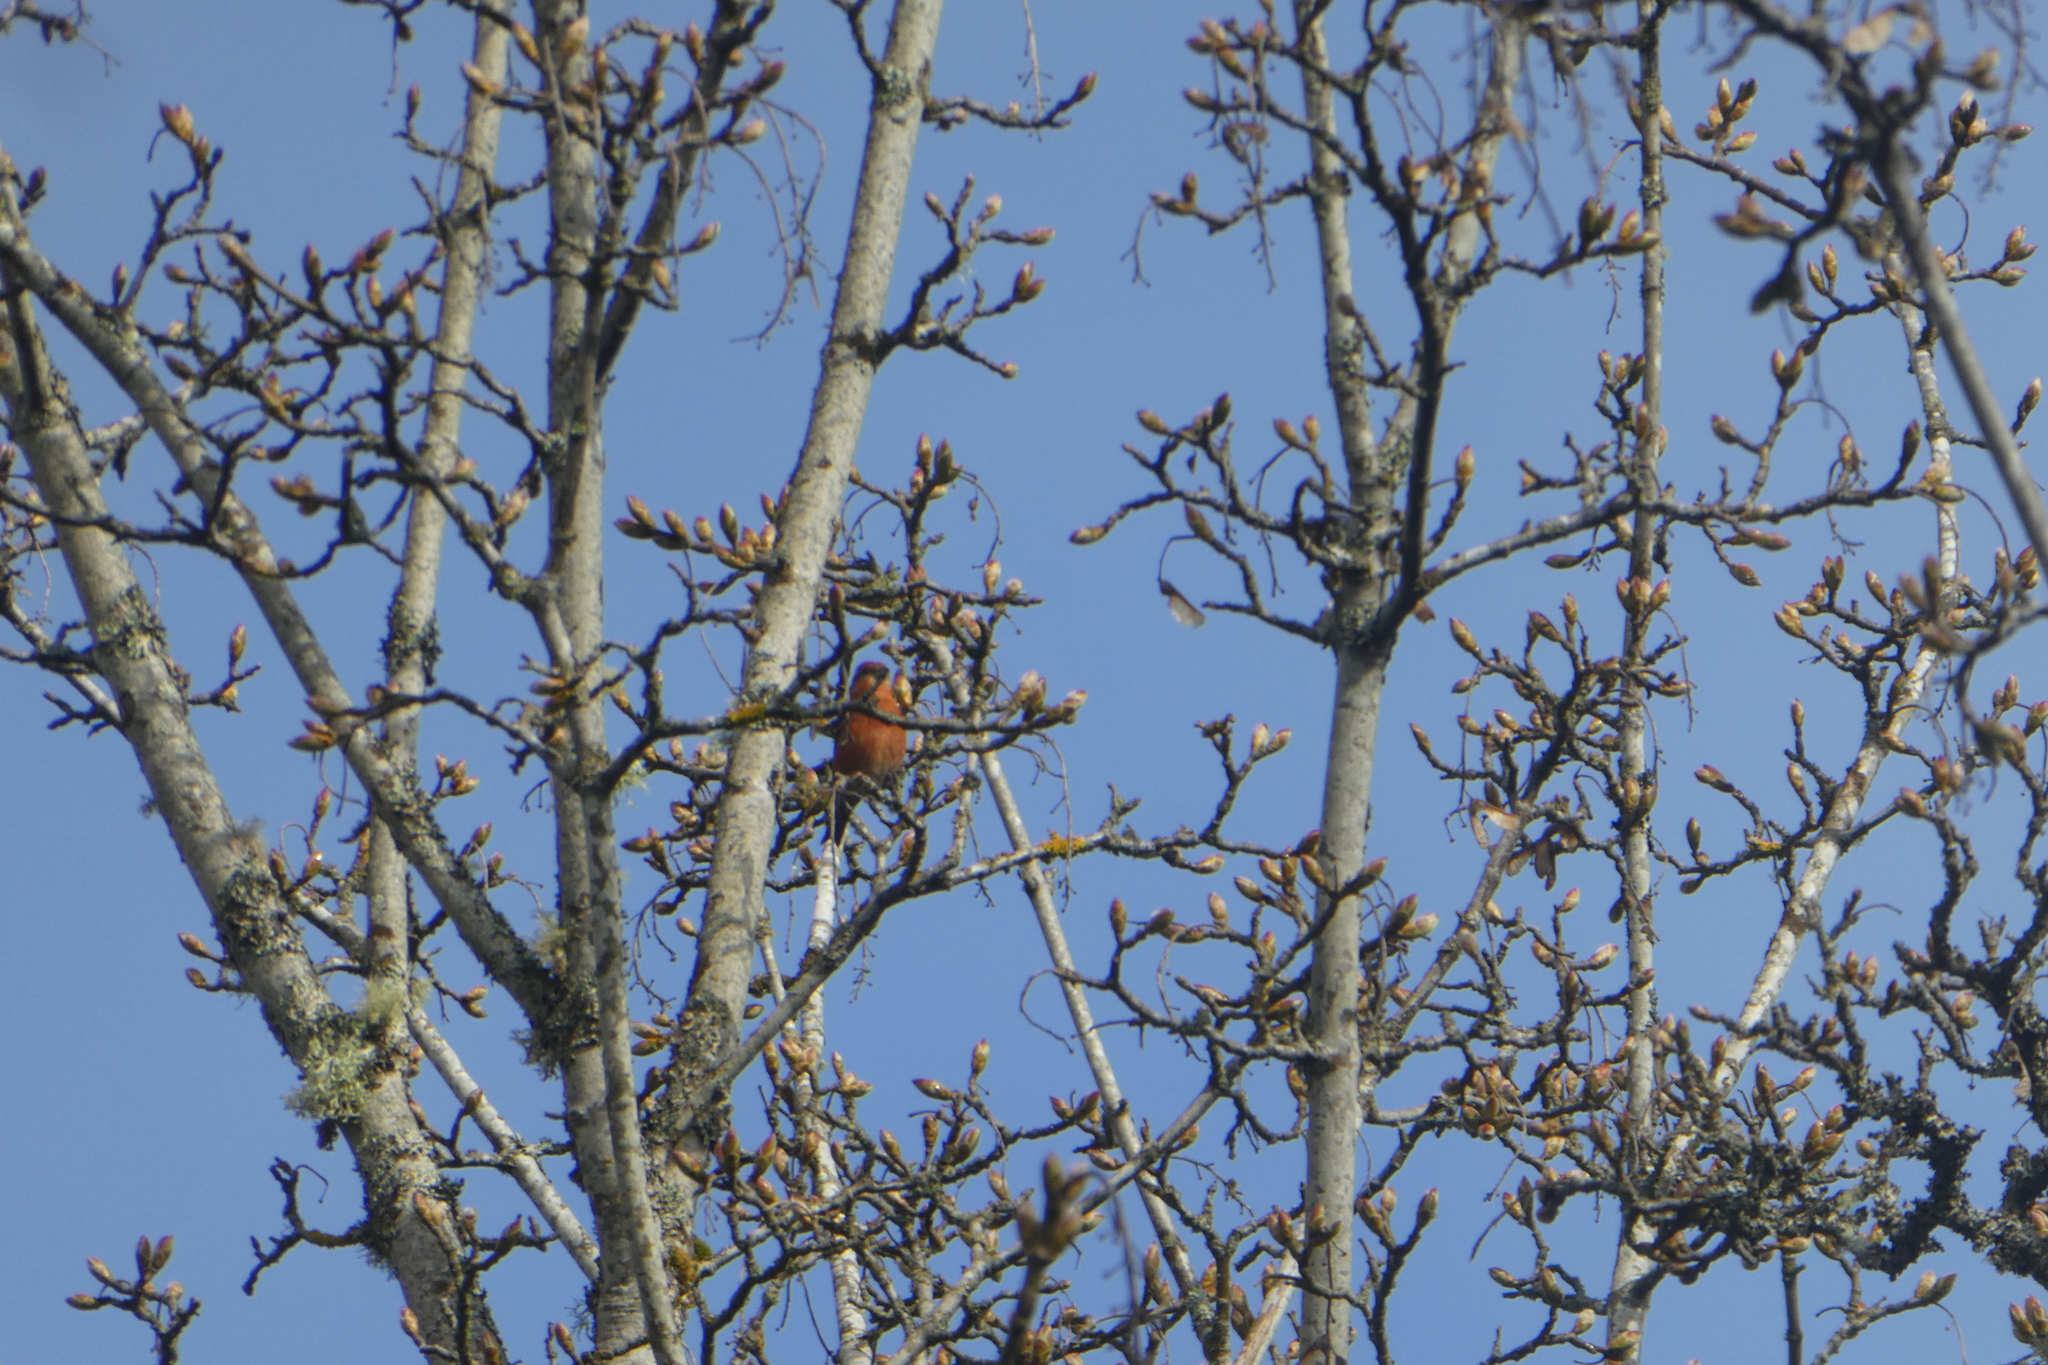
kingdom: Animalia
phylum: Chordata
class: Aves
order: Passeriformes
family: Fringillidae
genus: Loxia
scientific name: Loxia curvirostra
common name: Red crossbill
